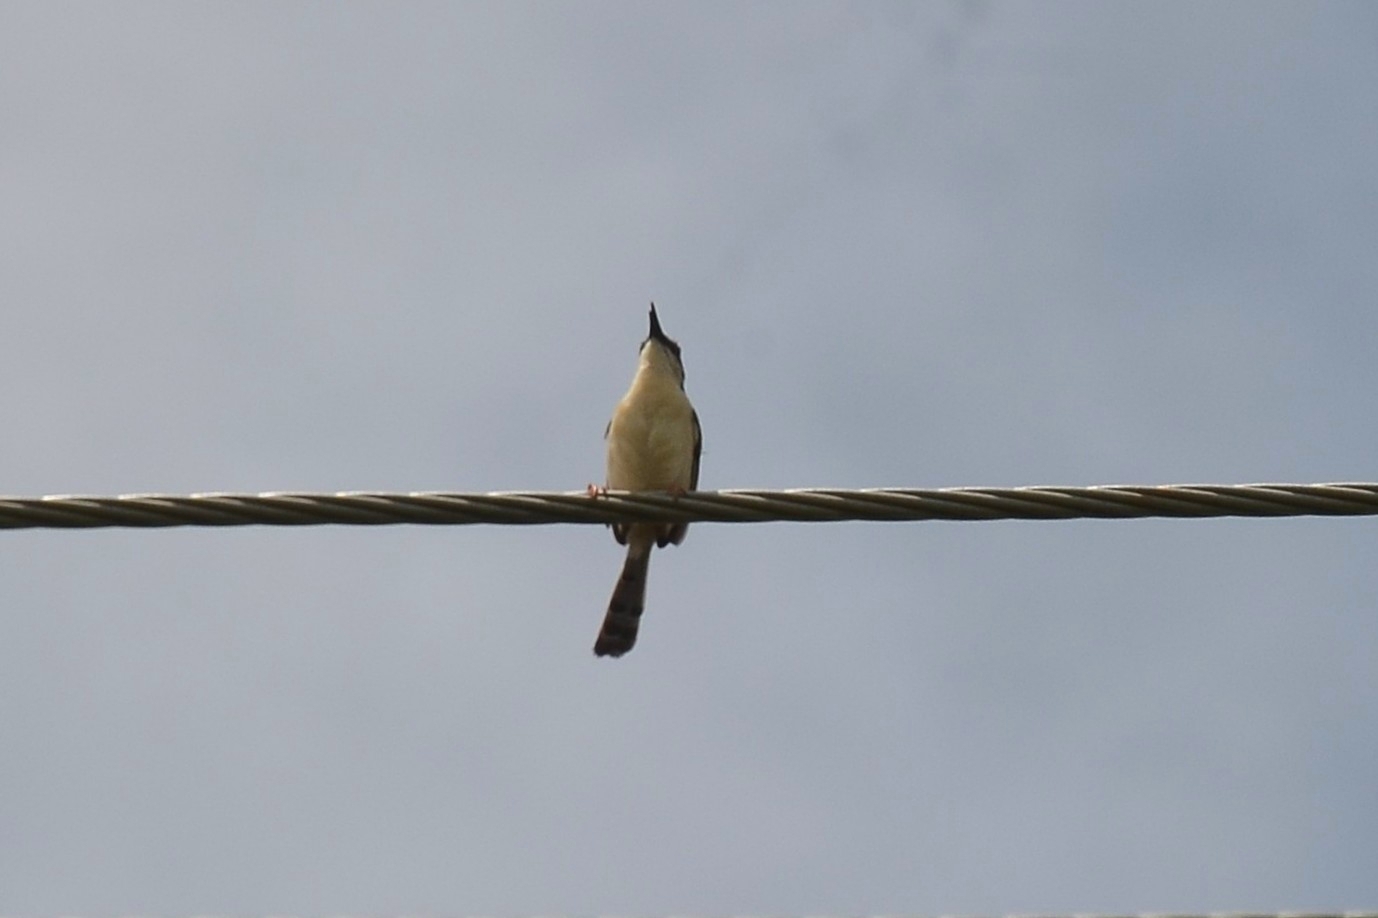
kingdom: Animalia
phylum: Chordata
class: Aves
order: Passeriformes
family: Cisticolidae
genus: Prinia
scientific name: Prinia socialis
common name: Ashy prinia
